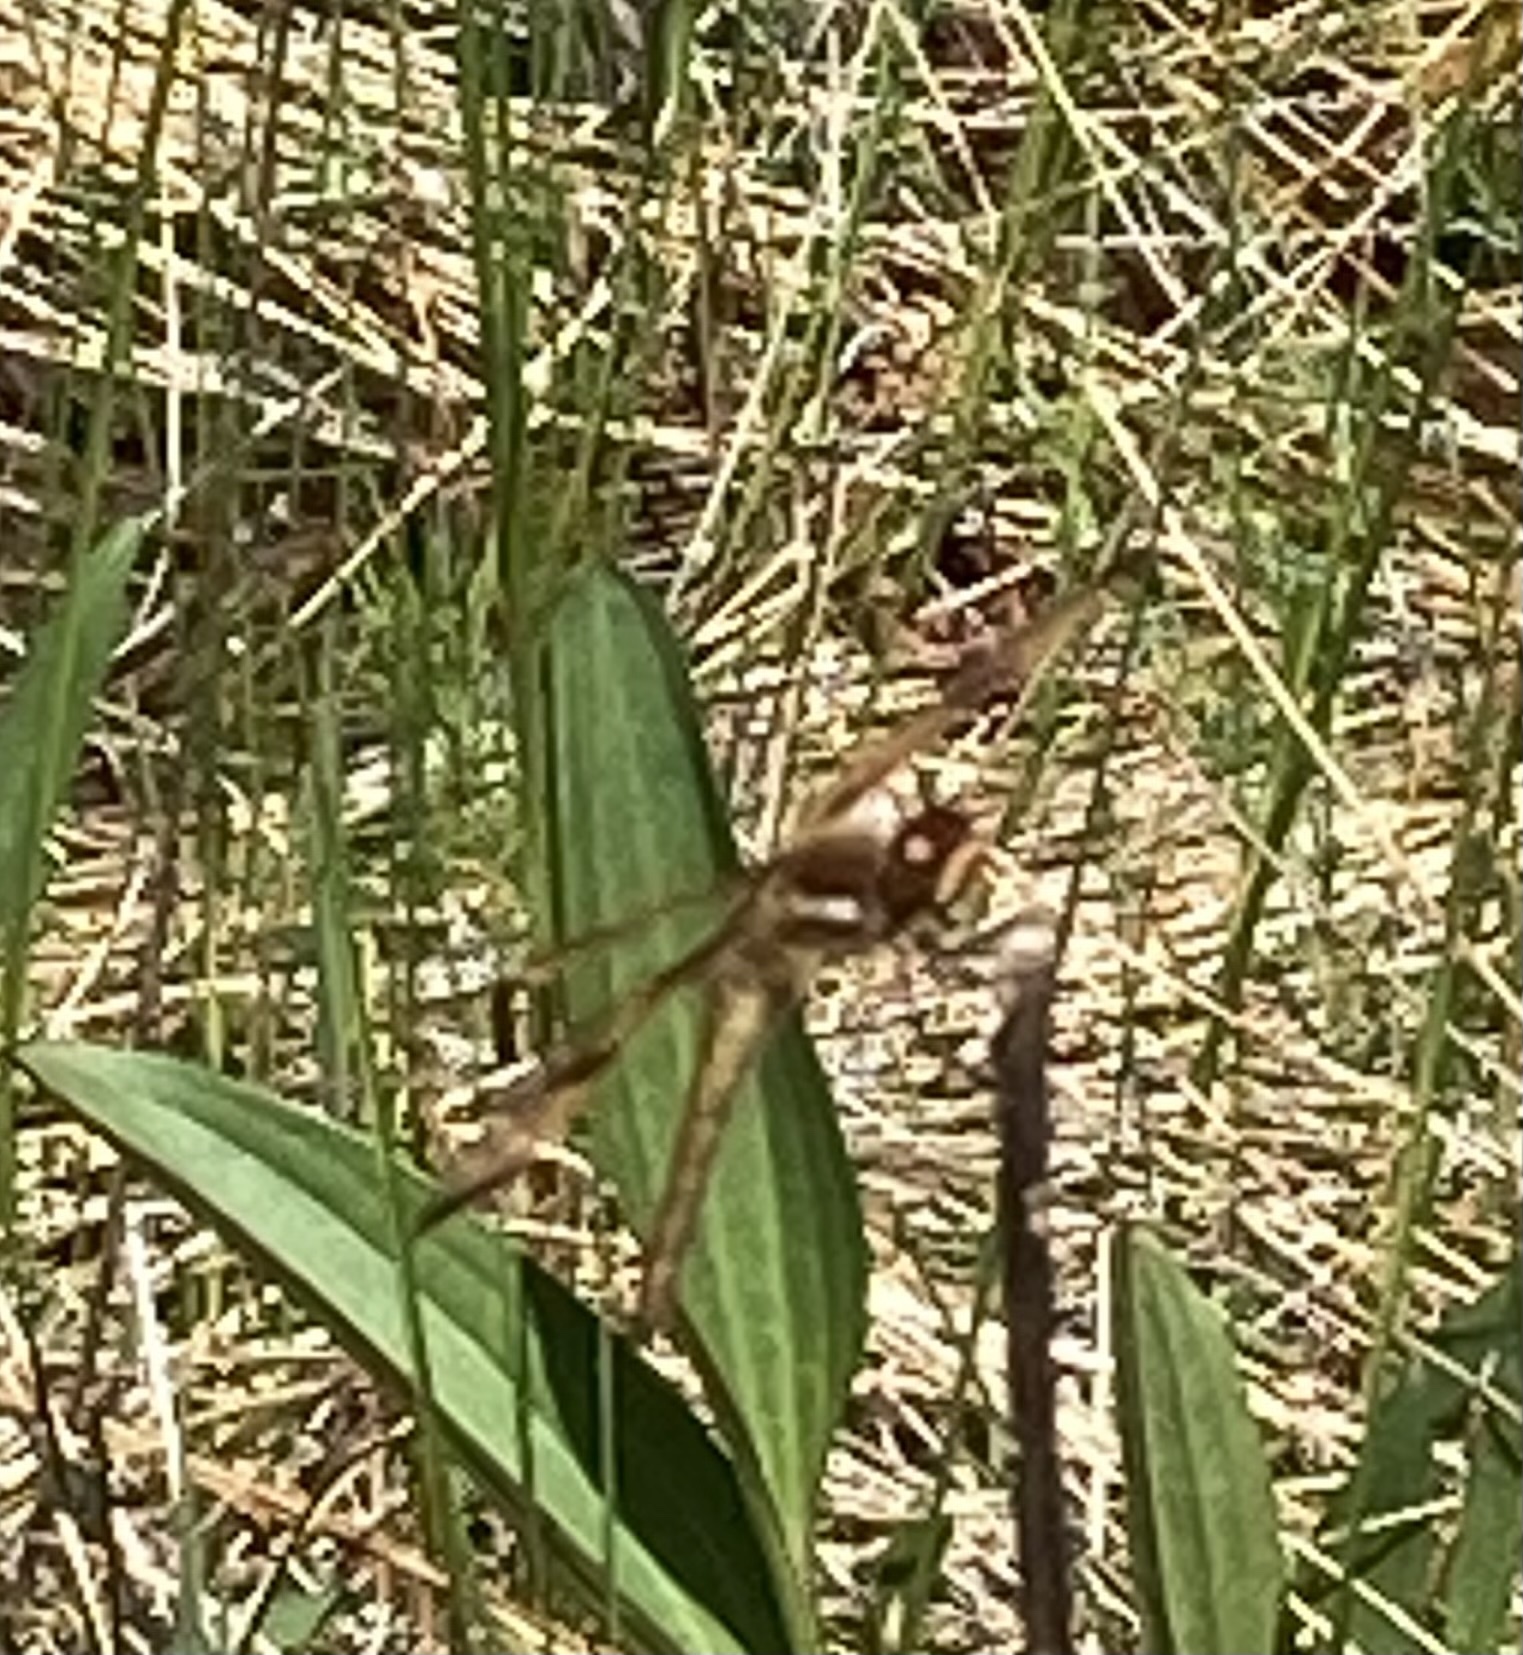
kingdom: Animalia
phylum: Arthropoda
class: Insecta
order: Odonata
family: Libellulidae
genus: Libellula
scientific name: Libellula semifasciata
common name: Painted skimmer
